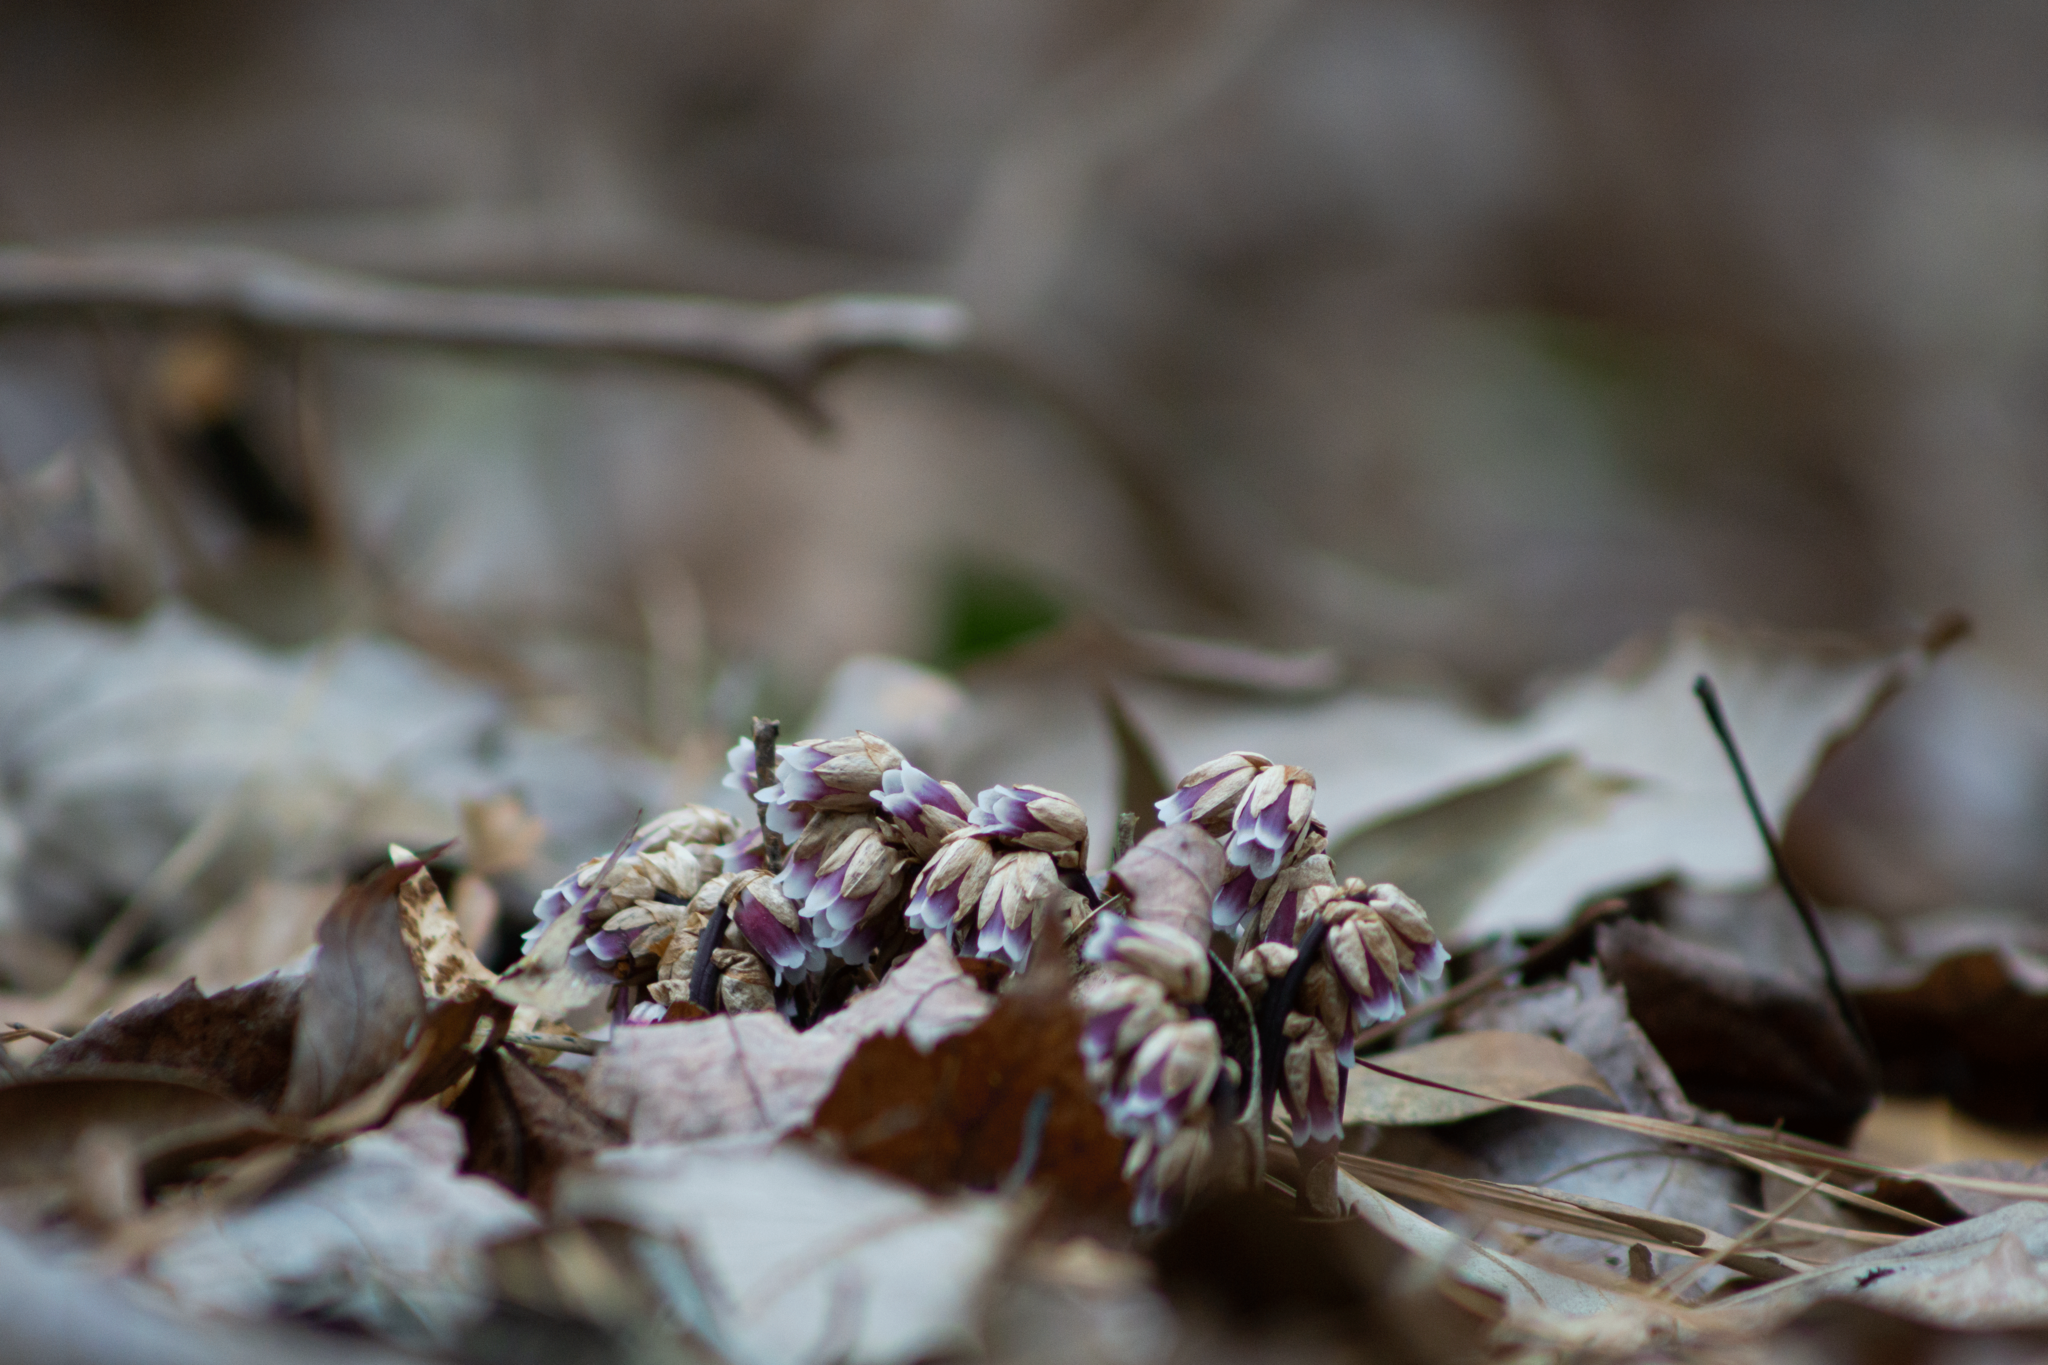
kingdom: Plantae
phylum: Tracheophyta
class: Magnoliopsida
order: Ericales
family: Ericaceae
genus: Monotropsis
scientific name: Monotropsis odorata
